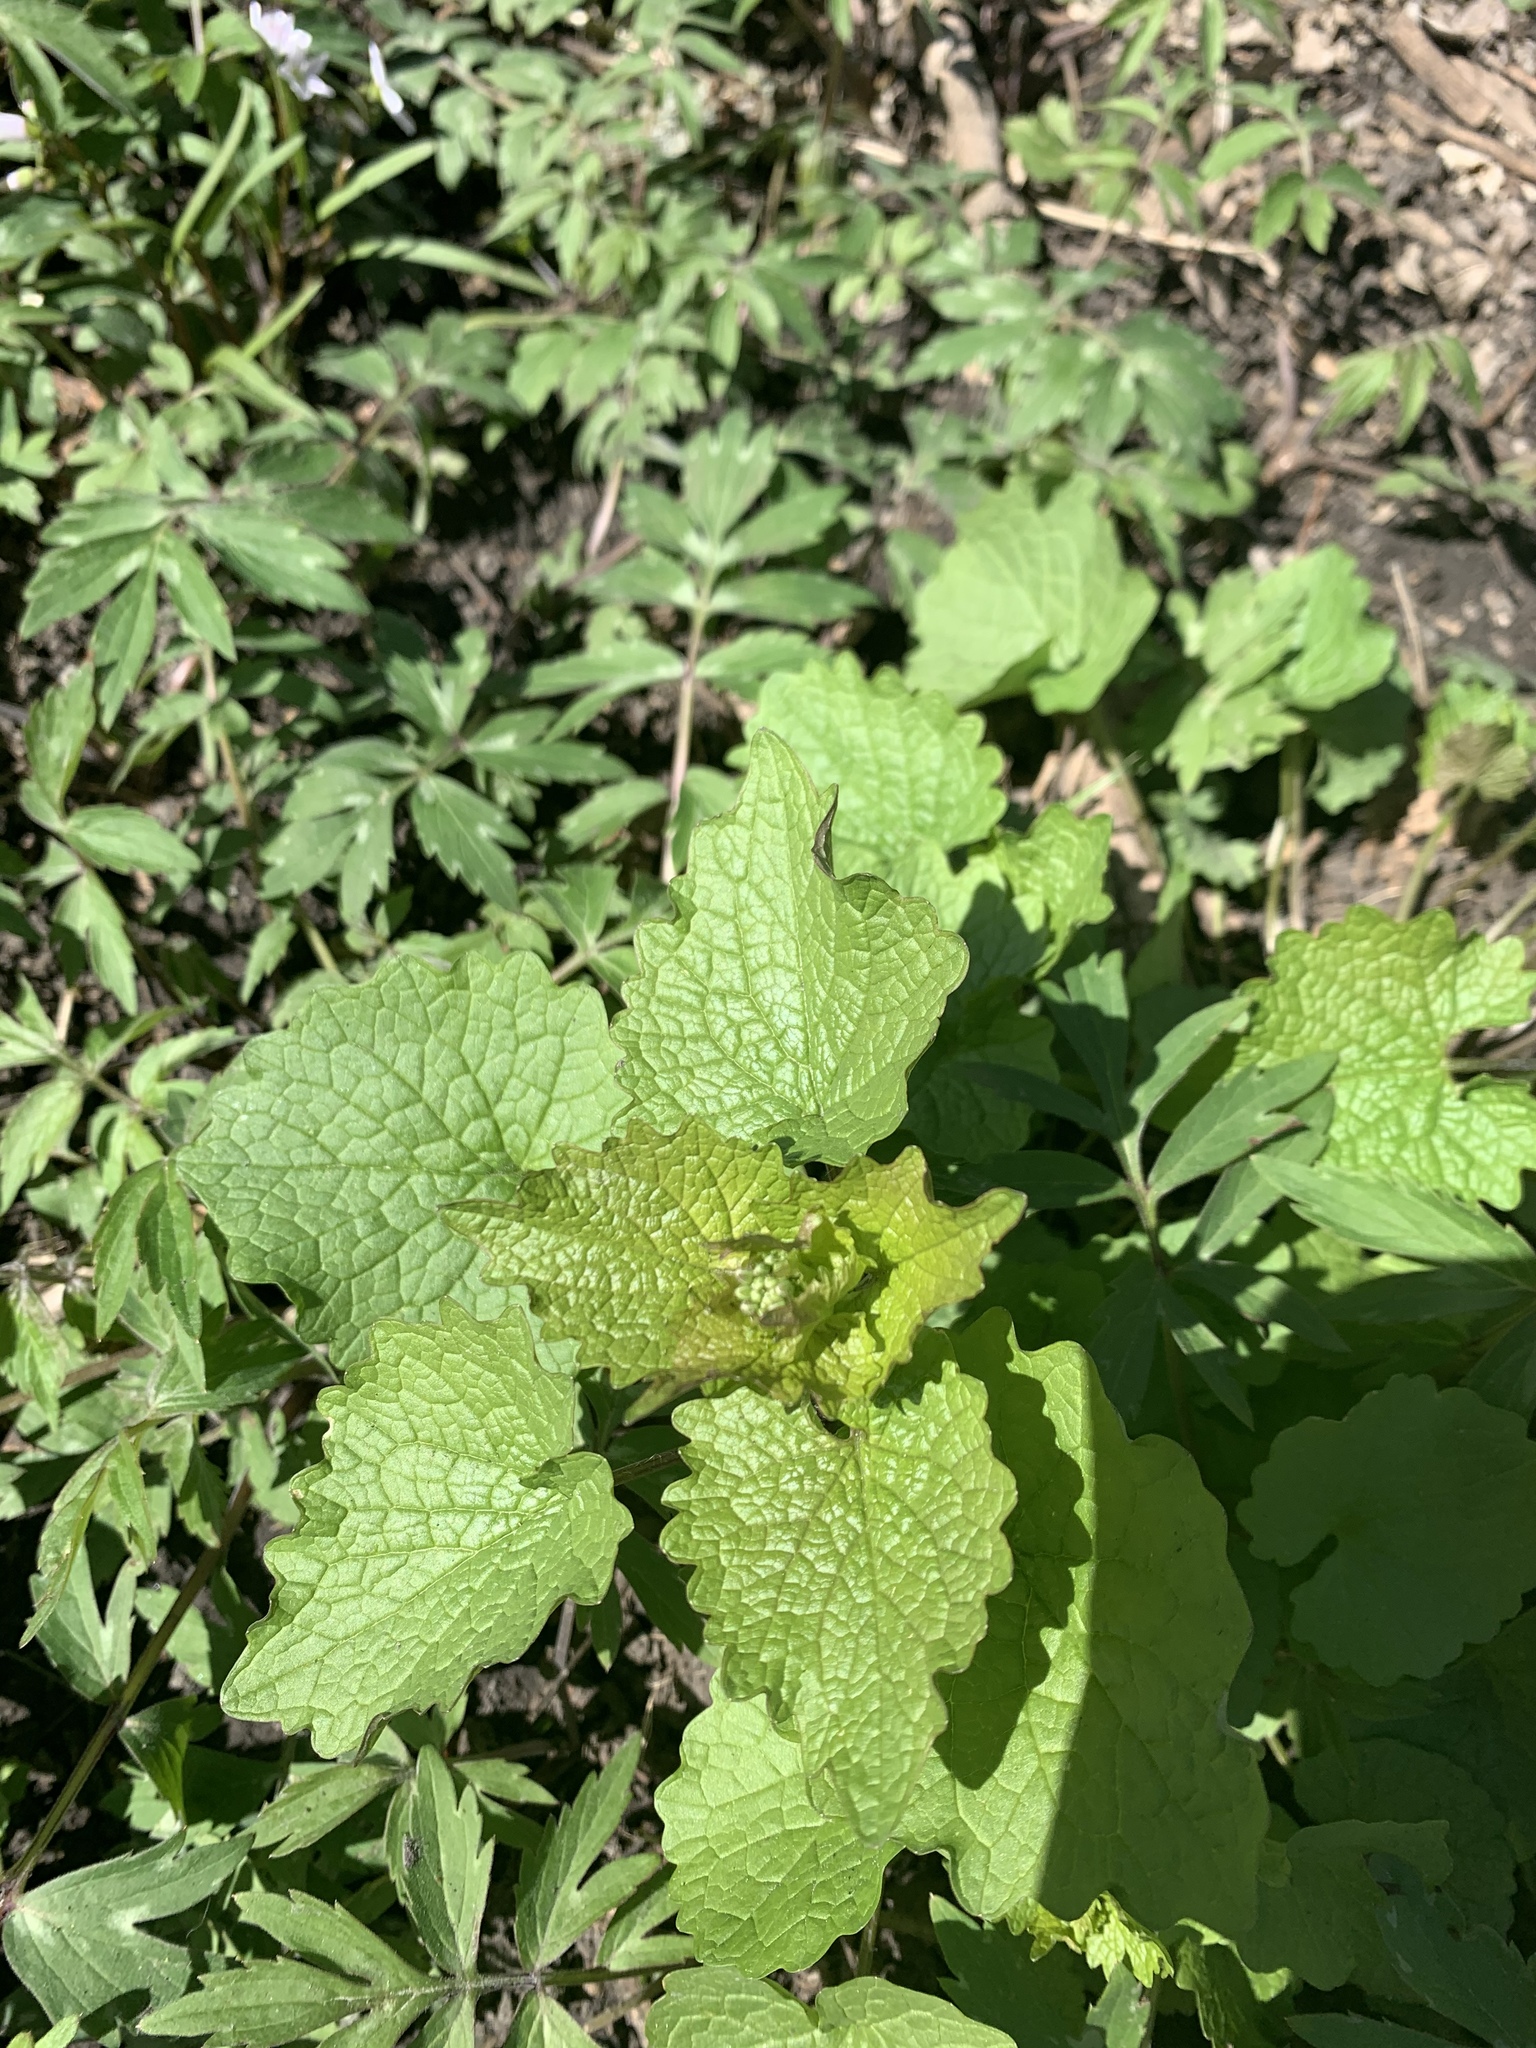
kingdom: Plantae
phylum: Tracheophyta
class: Magnoliopsida
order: Brassicales
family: Brassicaceae
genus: Alliaria
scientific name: Alliaria petiolata
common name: Garlic mustard
